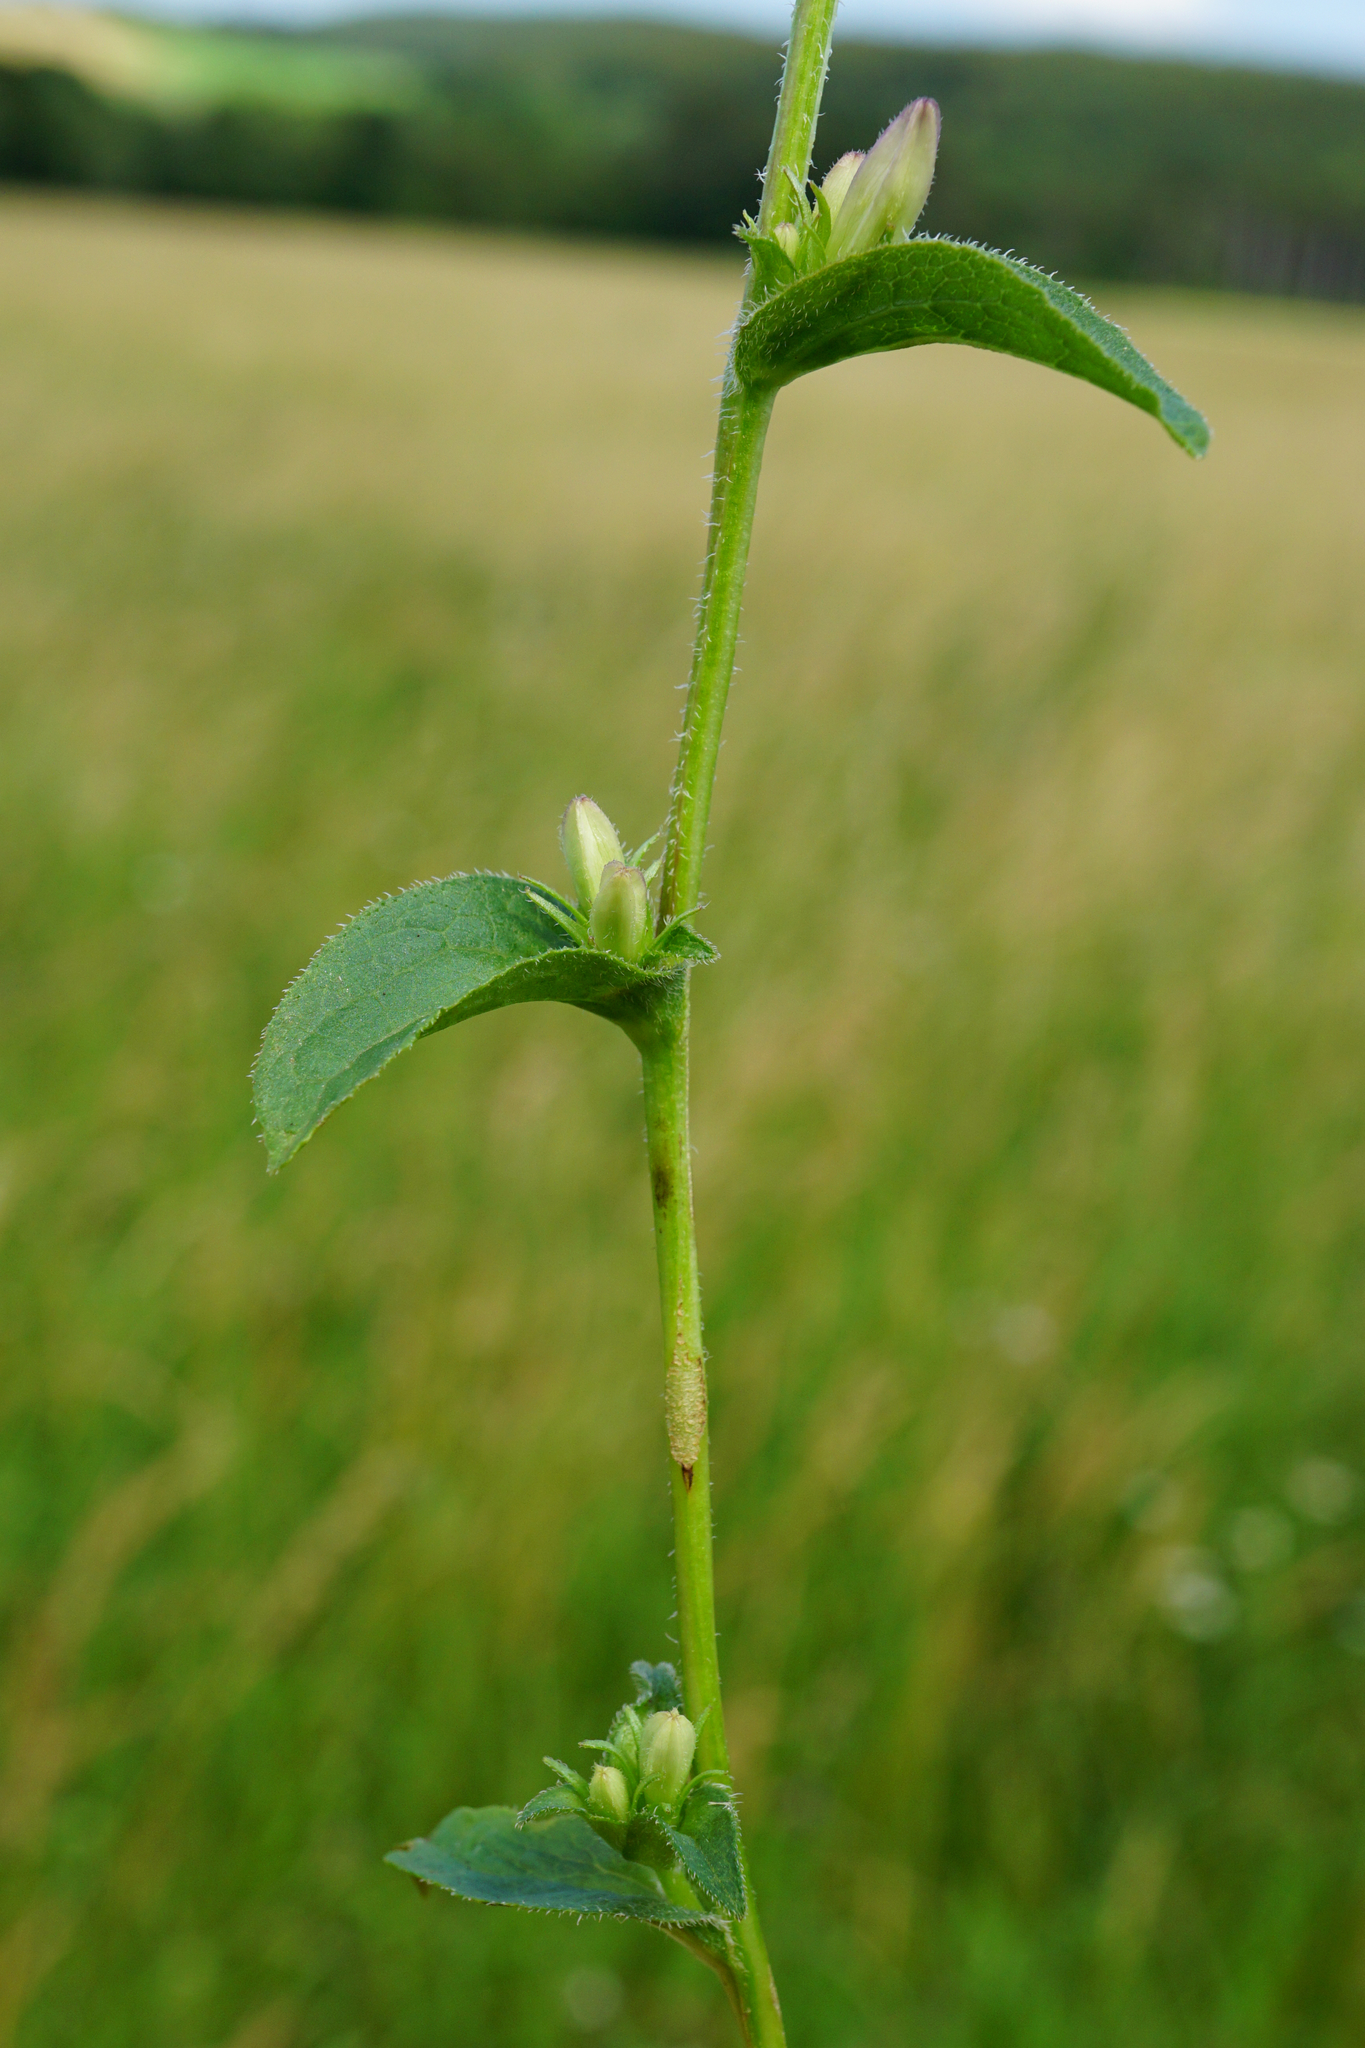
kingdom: Plantae
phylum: Tracheophyta
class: Magnoliopsida
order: Asterales
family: Campanulaceae
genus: Campanula
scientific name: Campanula glomerata
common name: Clustered bellflower
